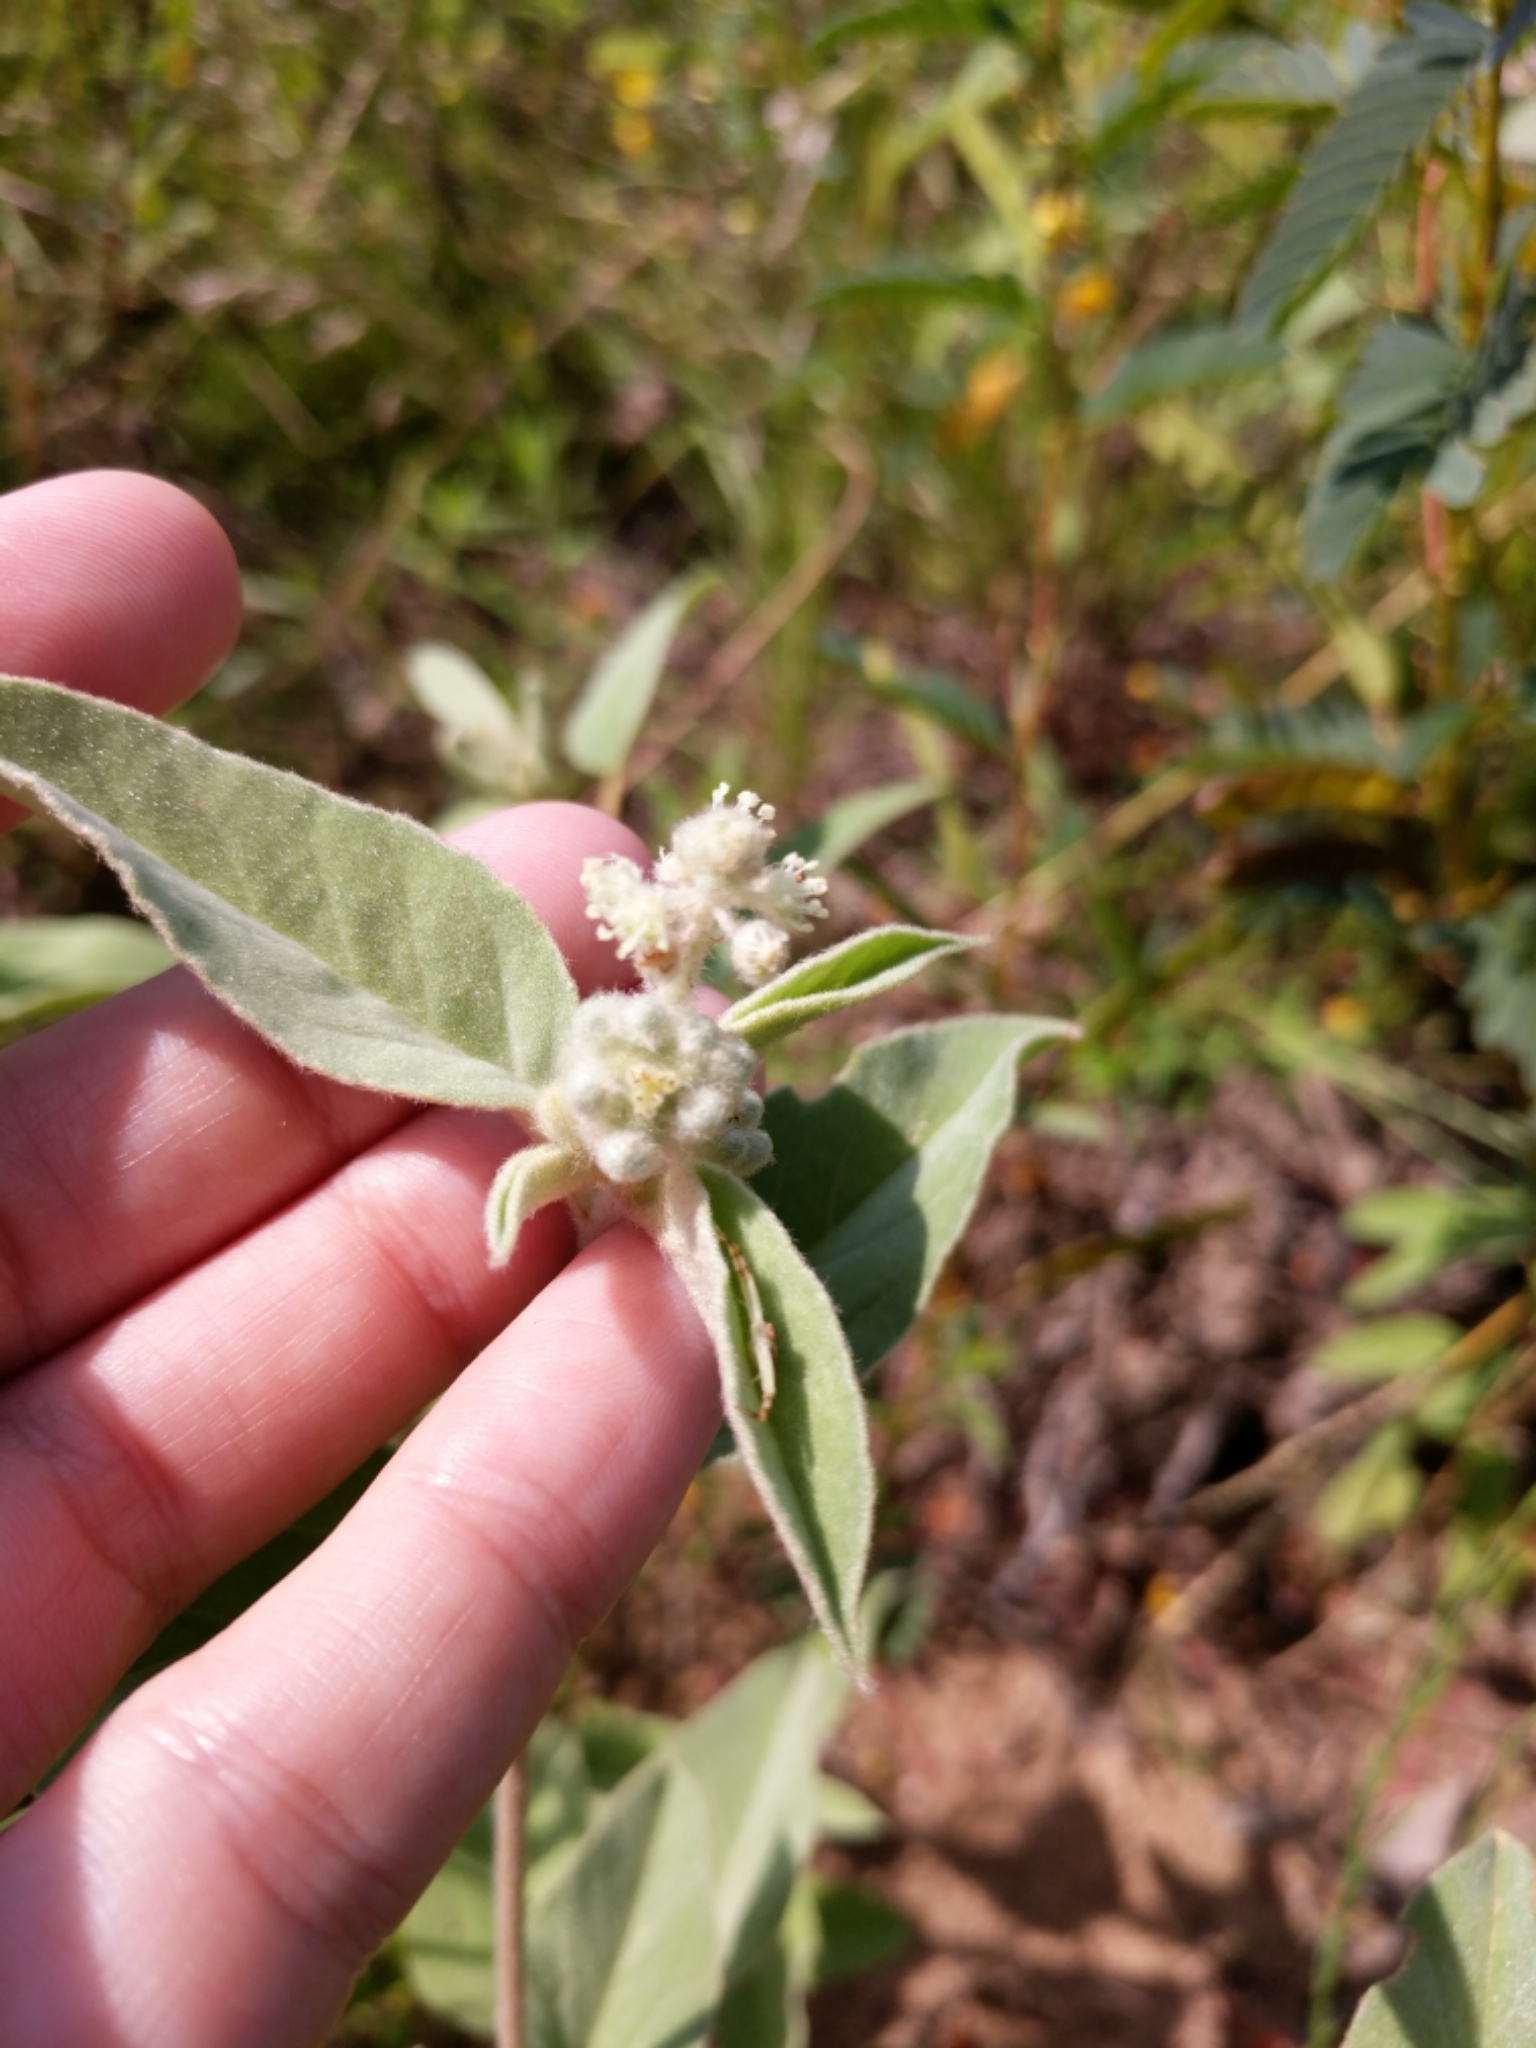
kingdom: Plantae
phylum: Tracheophyta
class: Magnoliopsida
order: Malpighiales
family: Euphorbiaceae
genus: Croton
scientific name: Croton lindheimeri
